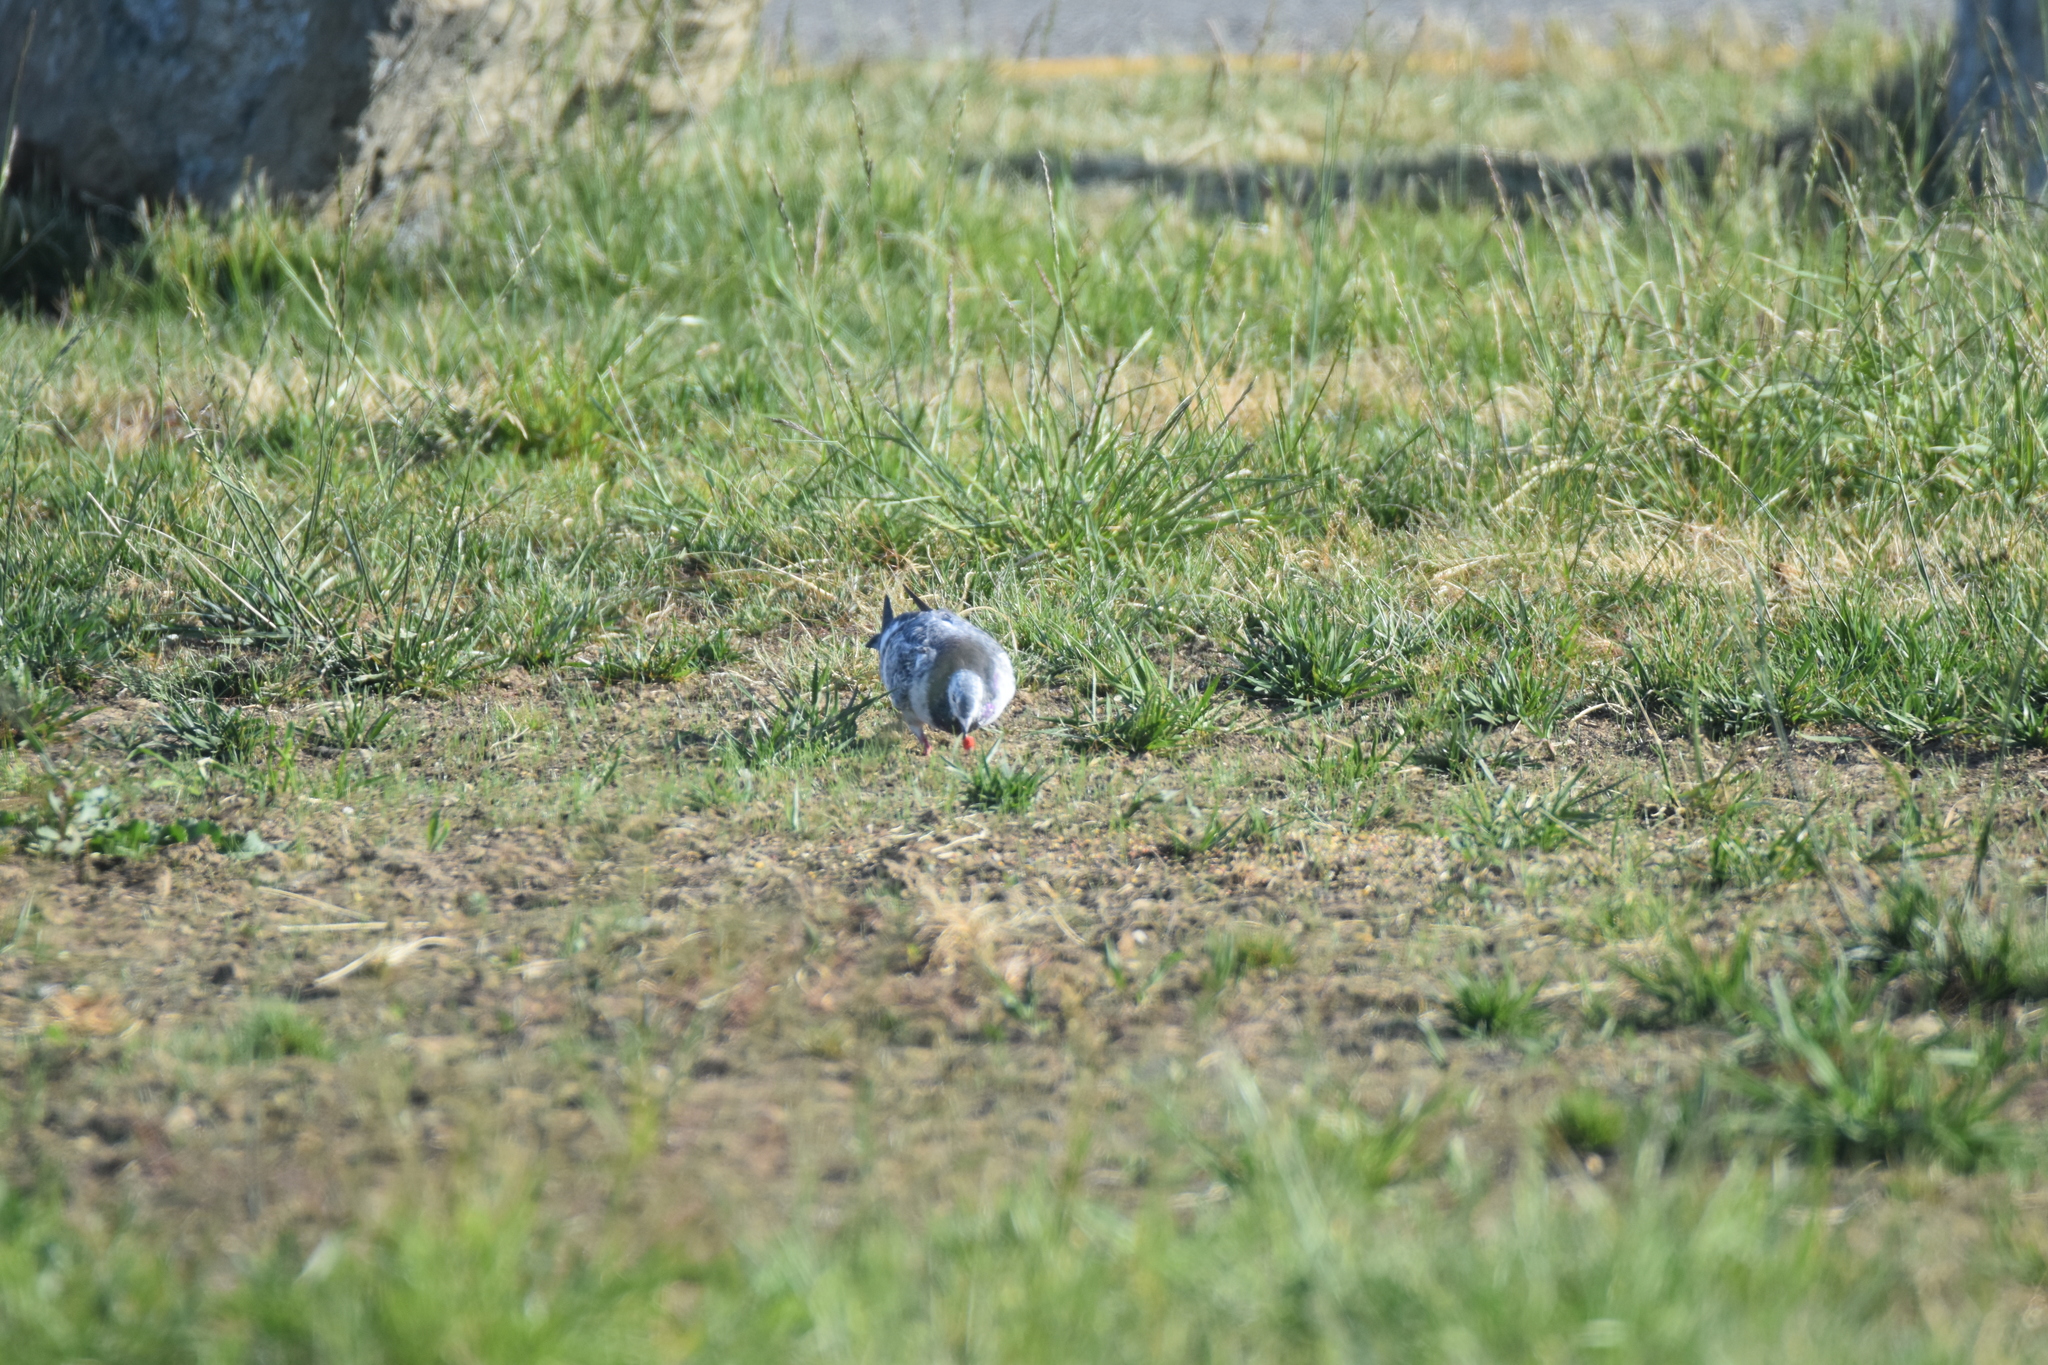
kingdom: Animalia
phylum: Chordata
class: Aves
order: Columbiformes
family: Columbidae
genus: Columba
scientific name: Columba livia
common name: Rock pigeon
